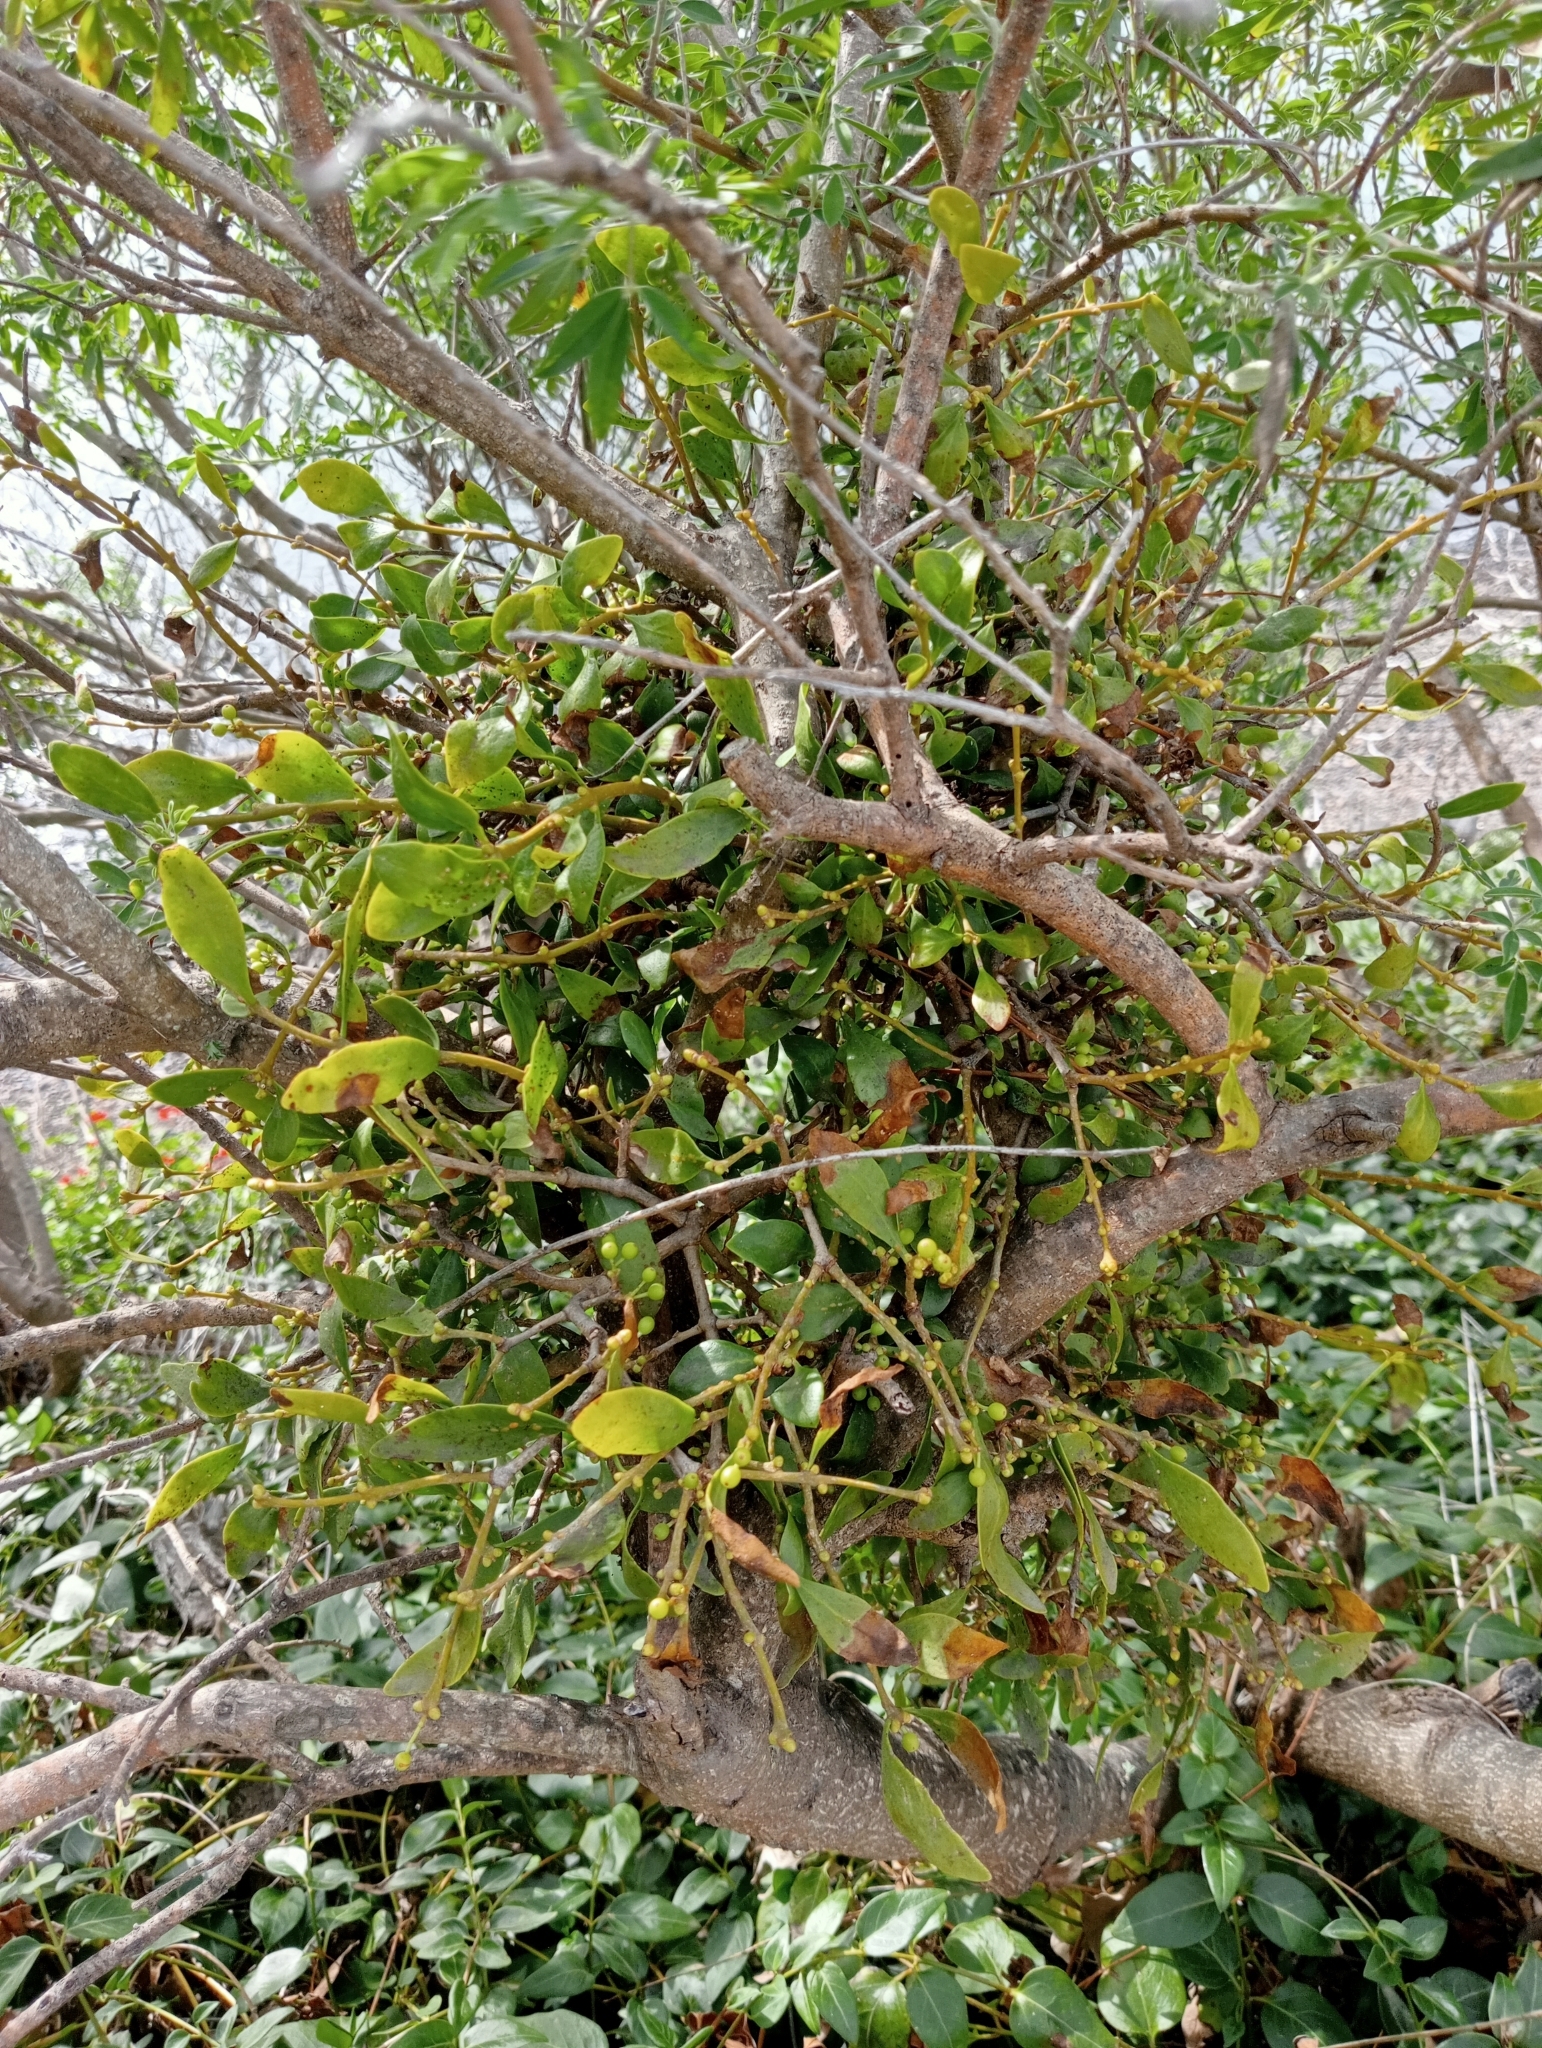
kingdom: Plantae
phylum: Tracheophyta
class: Magnoliopsida
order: Santalales
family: Loranthaceae
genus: Tupeia
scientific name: Tupeia antarctica
